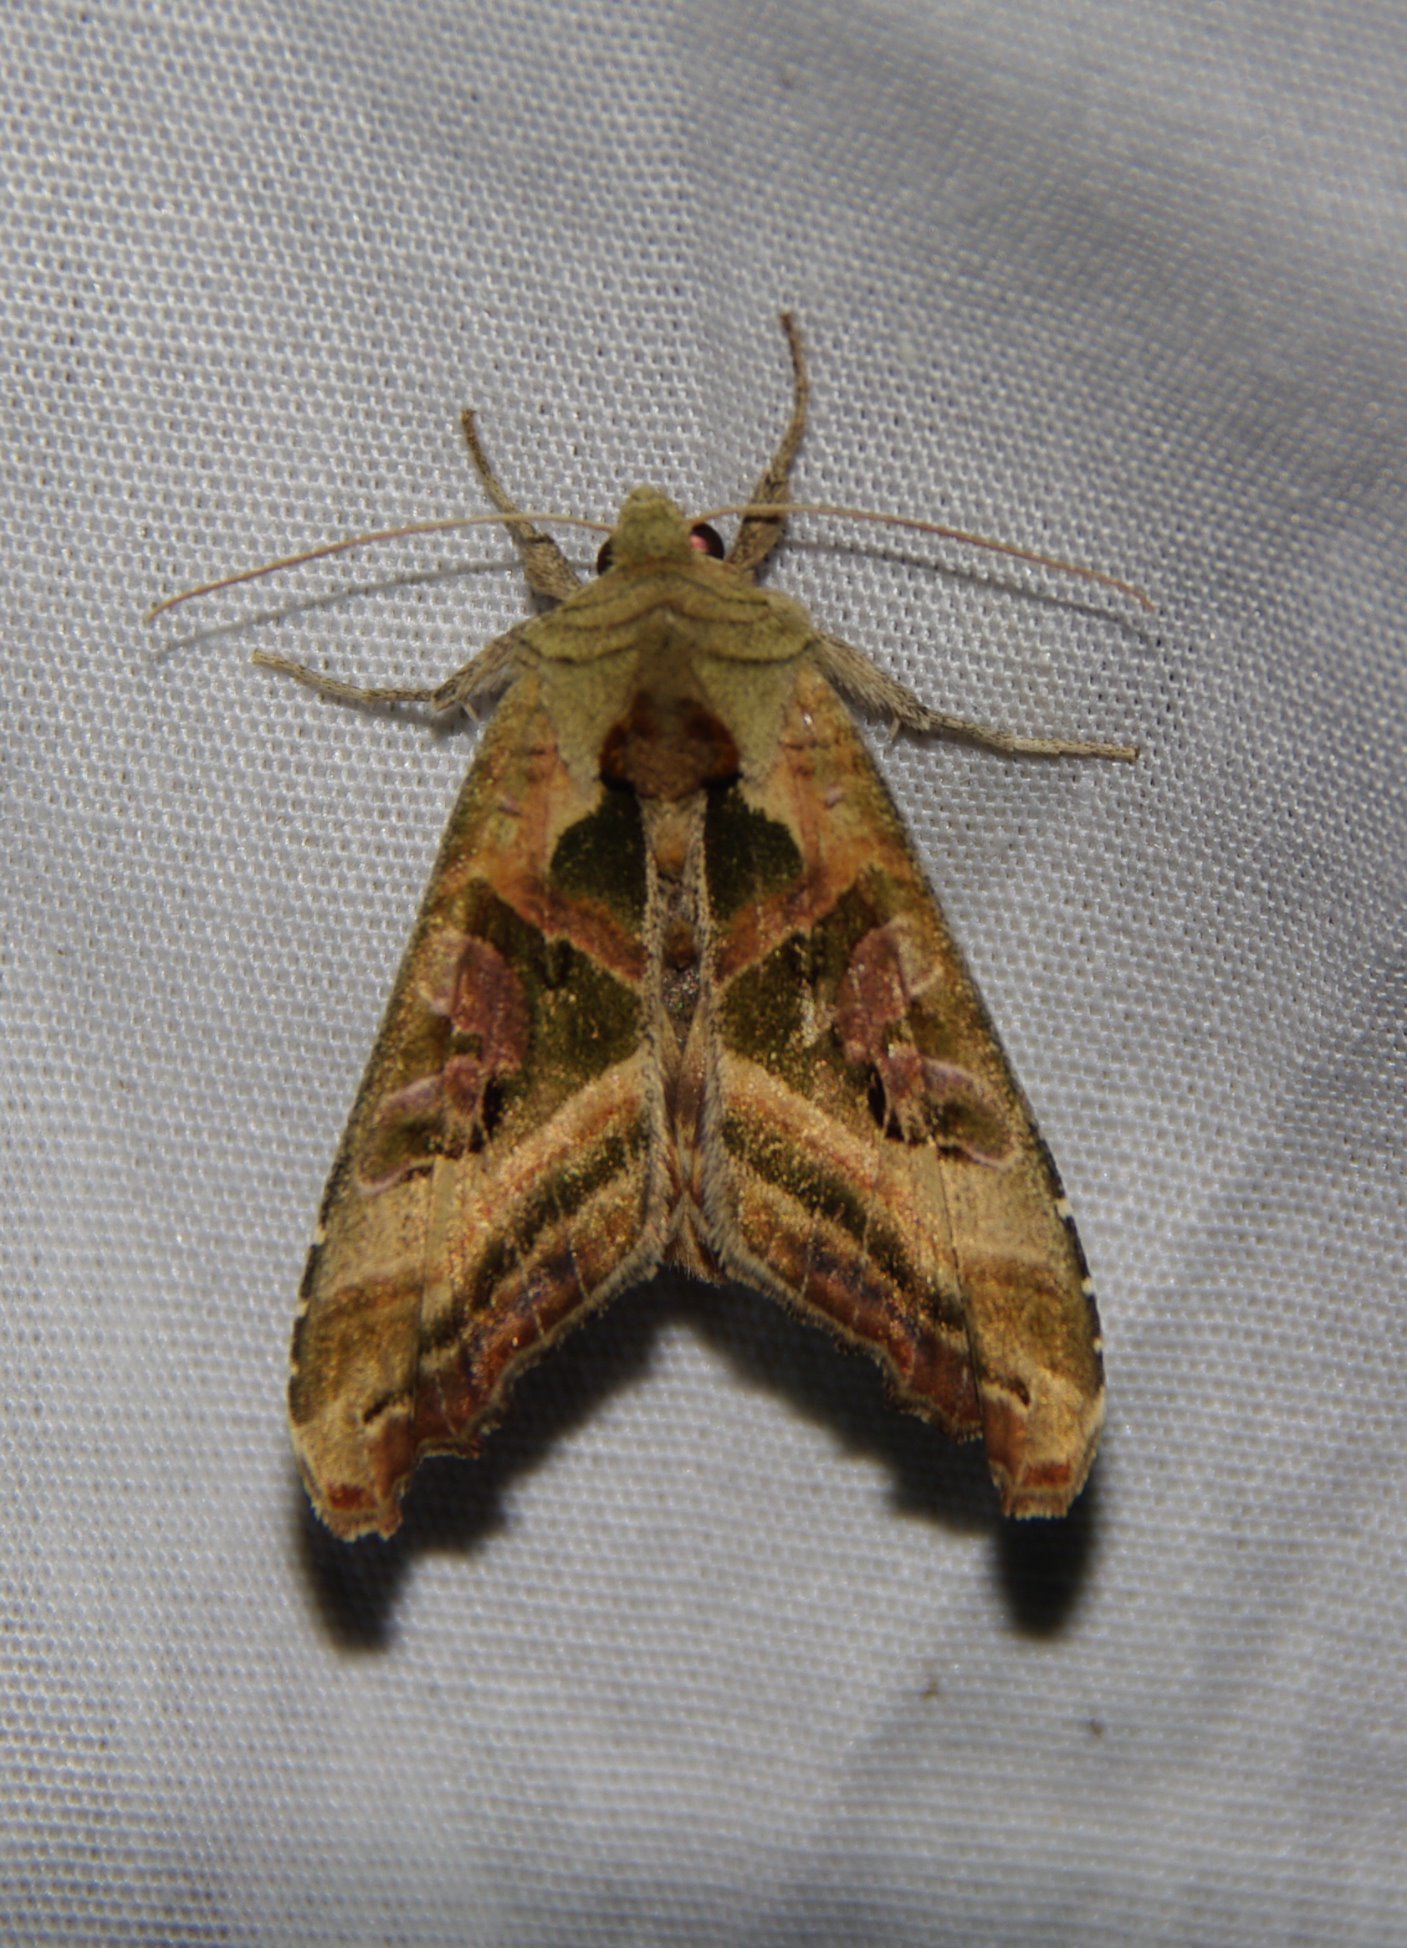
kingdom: Animalia
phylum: Arthropoda
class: Insecta
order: Lepidoptera
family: Noctuidae
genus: Phlogophora
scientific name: Phlogophora iris
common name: Olive angle shades
